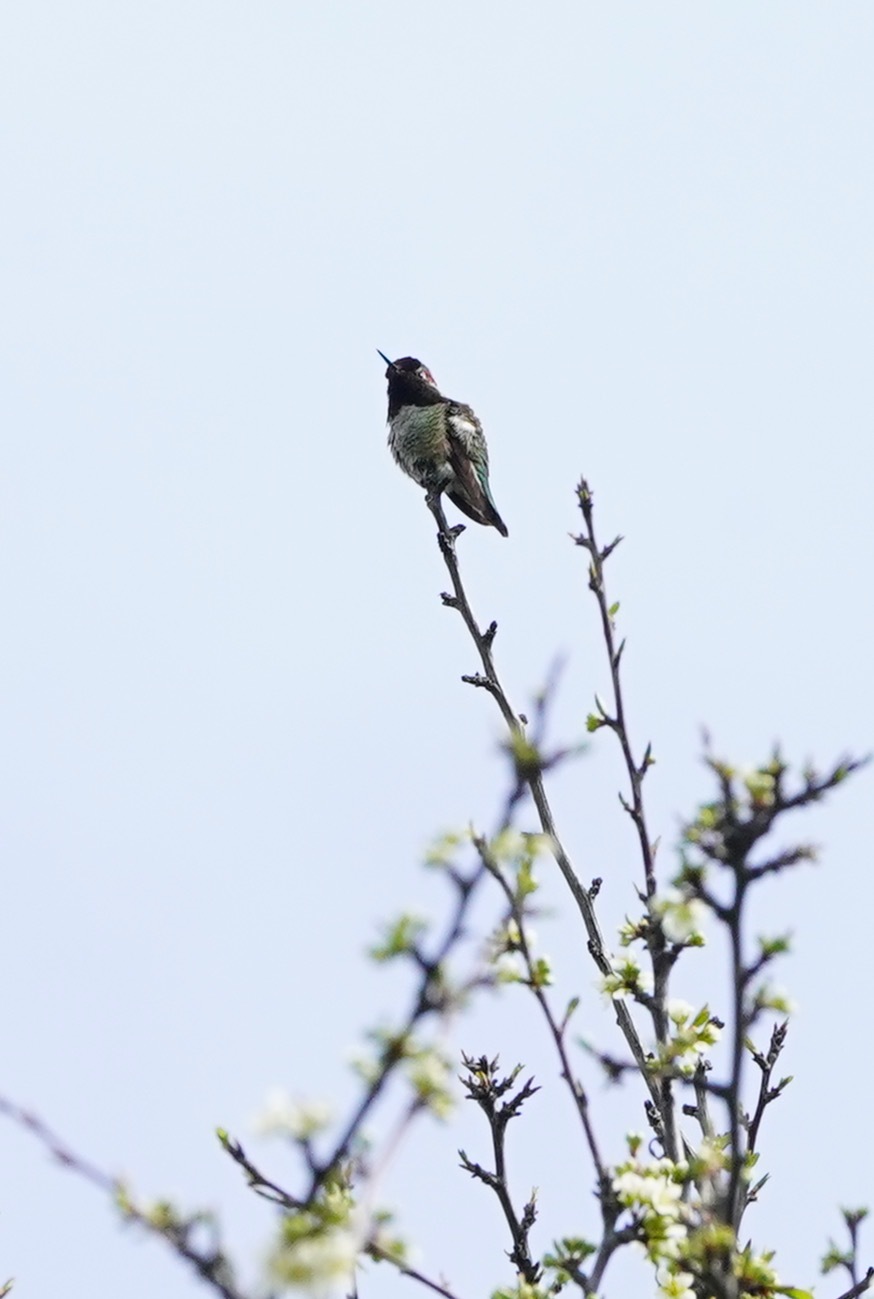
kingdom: Animalia
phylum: Chordata
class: Aves
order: Apodiformes
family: Trochilidae
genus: Calypte
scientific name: Calypte anna
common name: Anna's hummingbird
